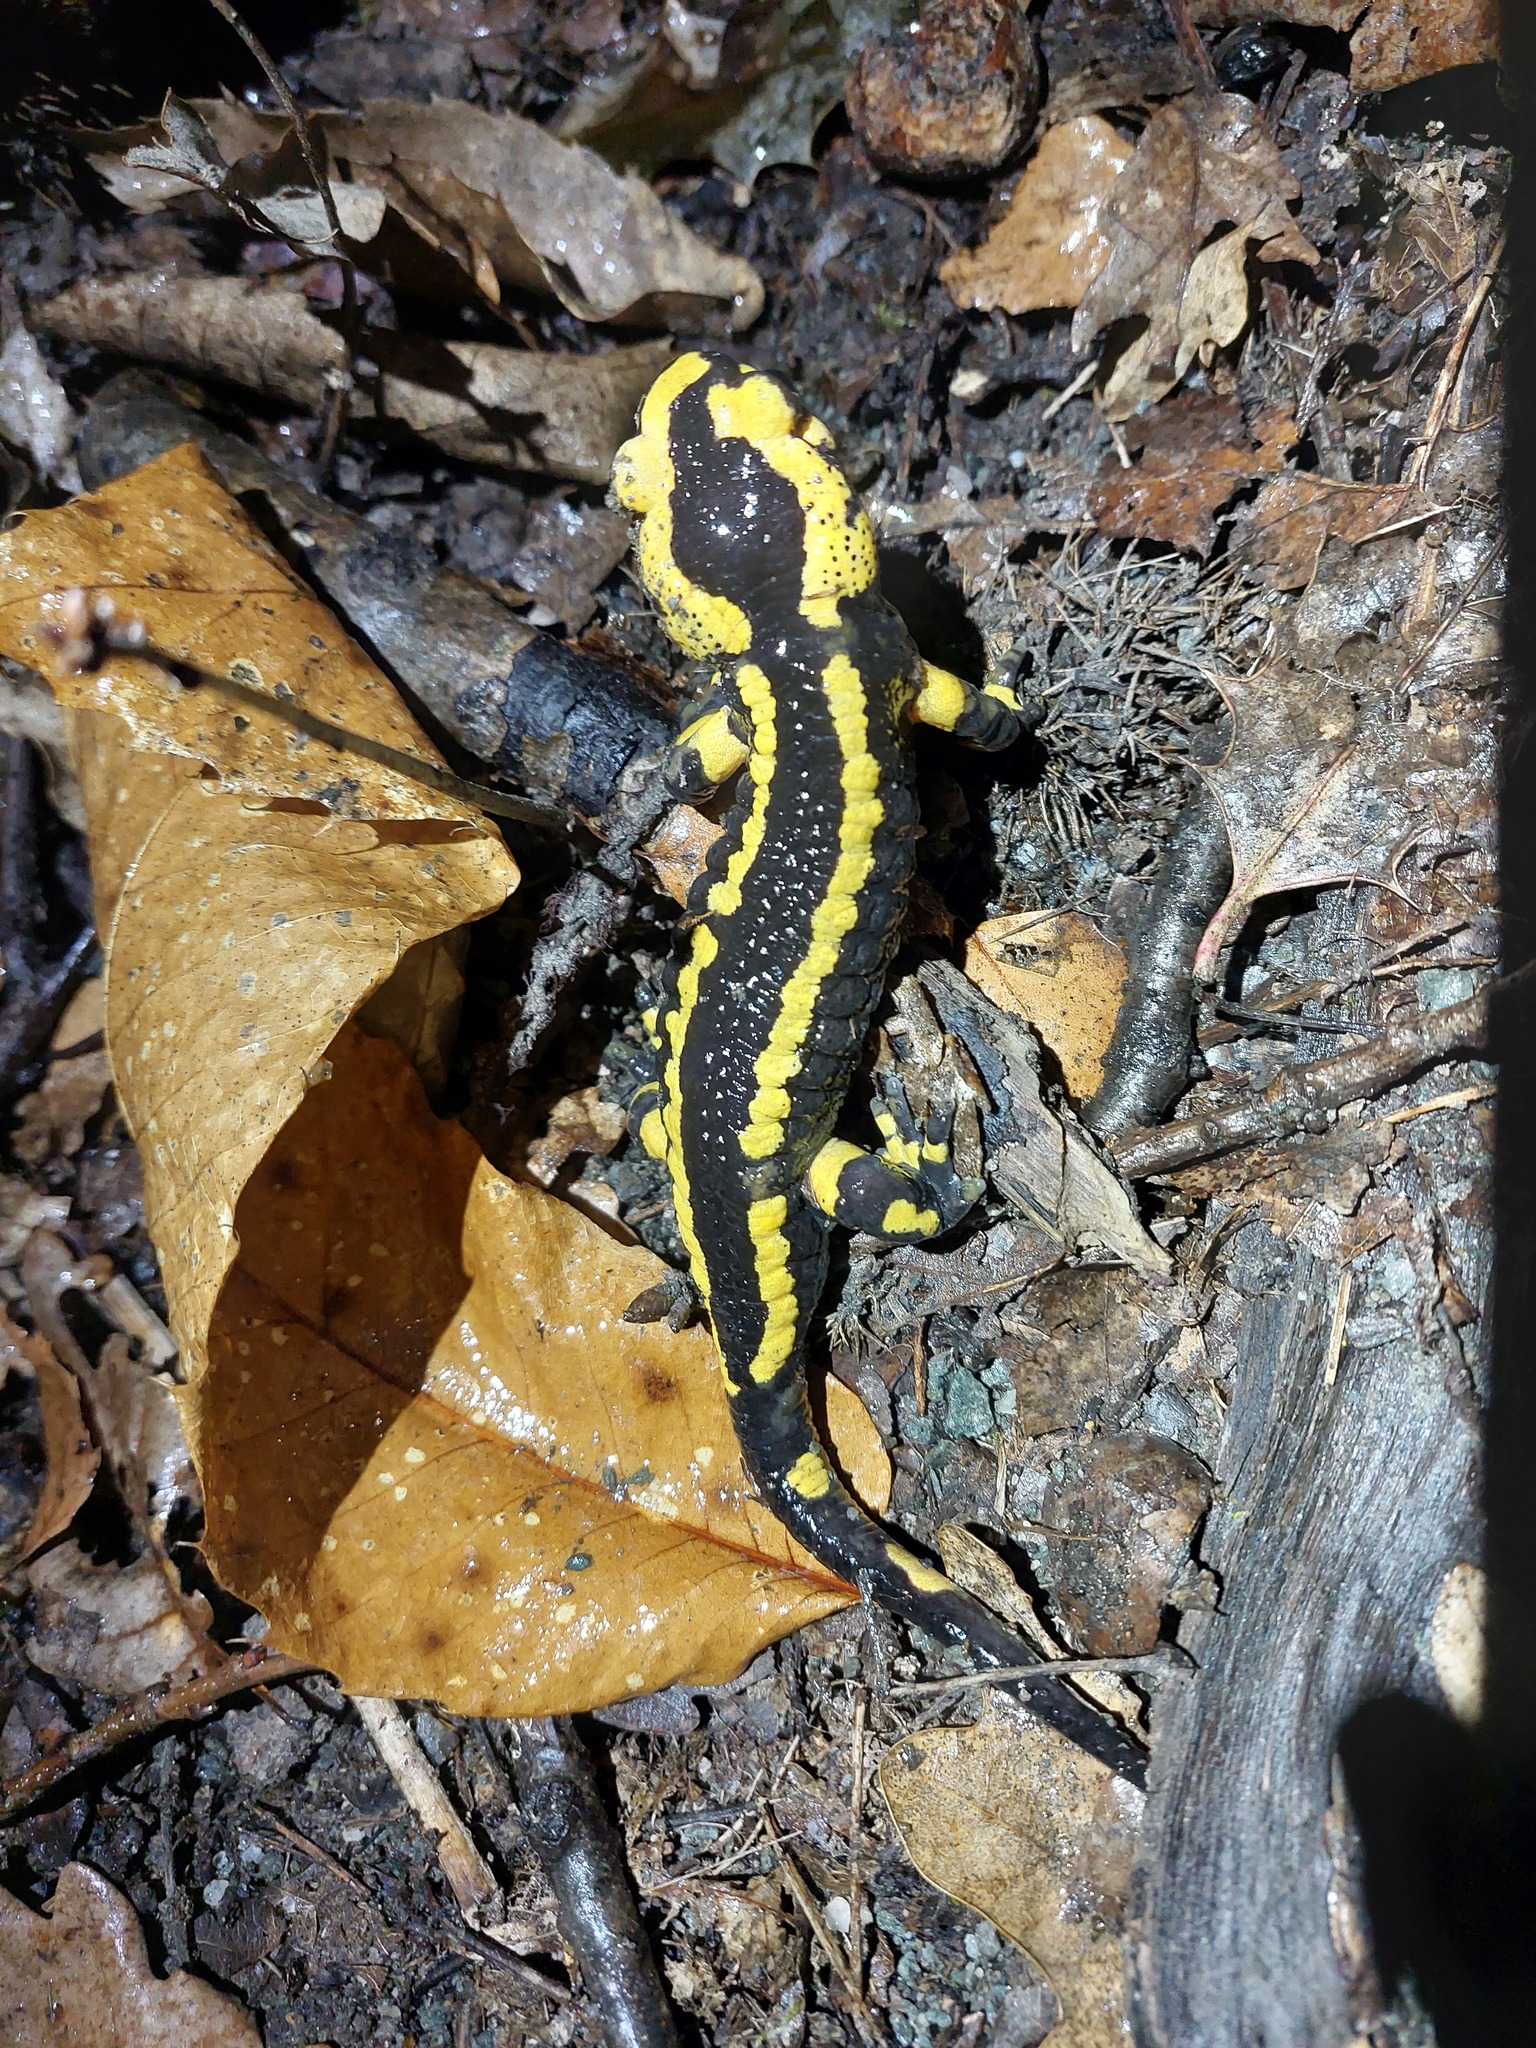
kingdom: Animalia
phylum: Chordata
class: Amphibia
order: Caudata
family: Salamandridae
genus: Salamandra
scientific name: Salamandra salamandra
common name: Fire salamander
